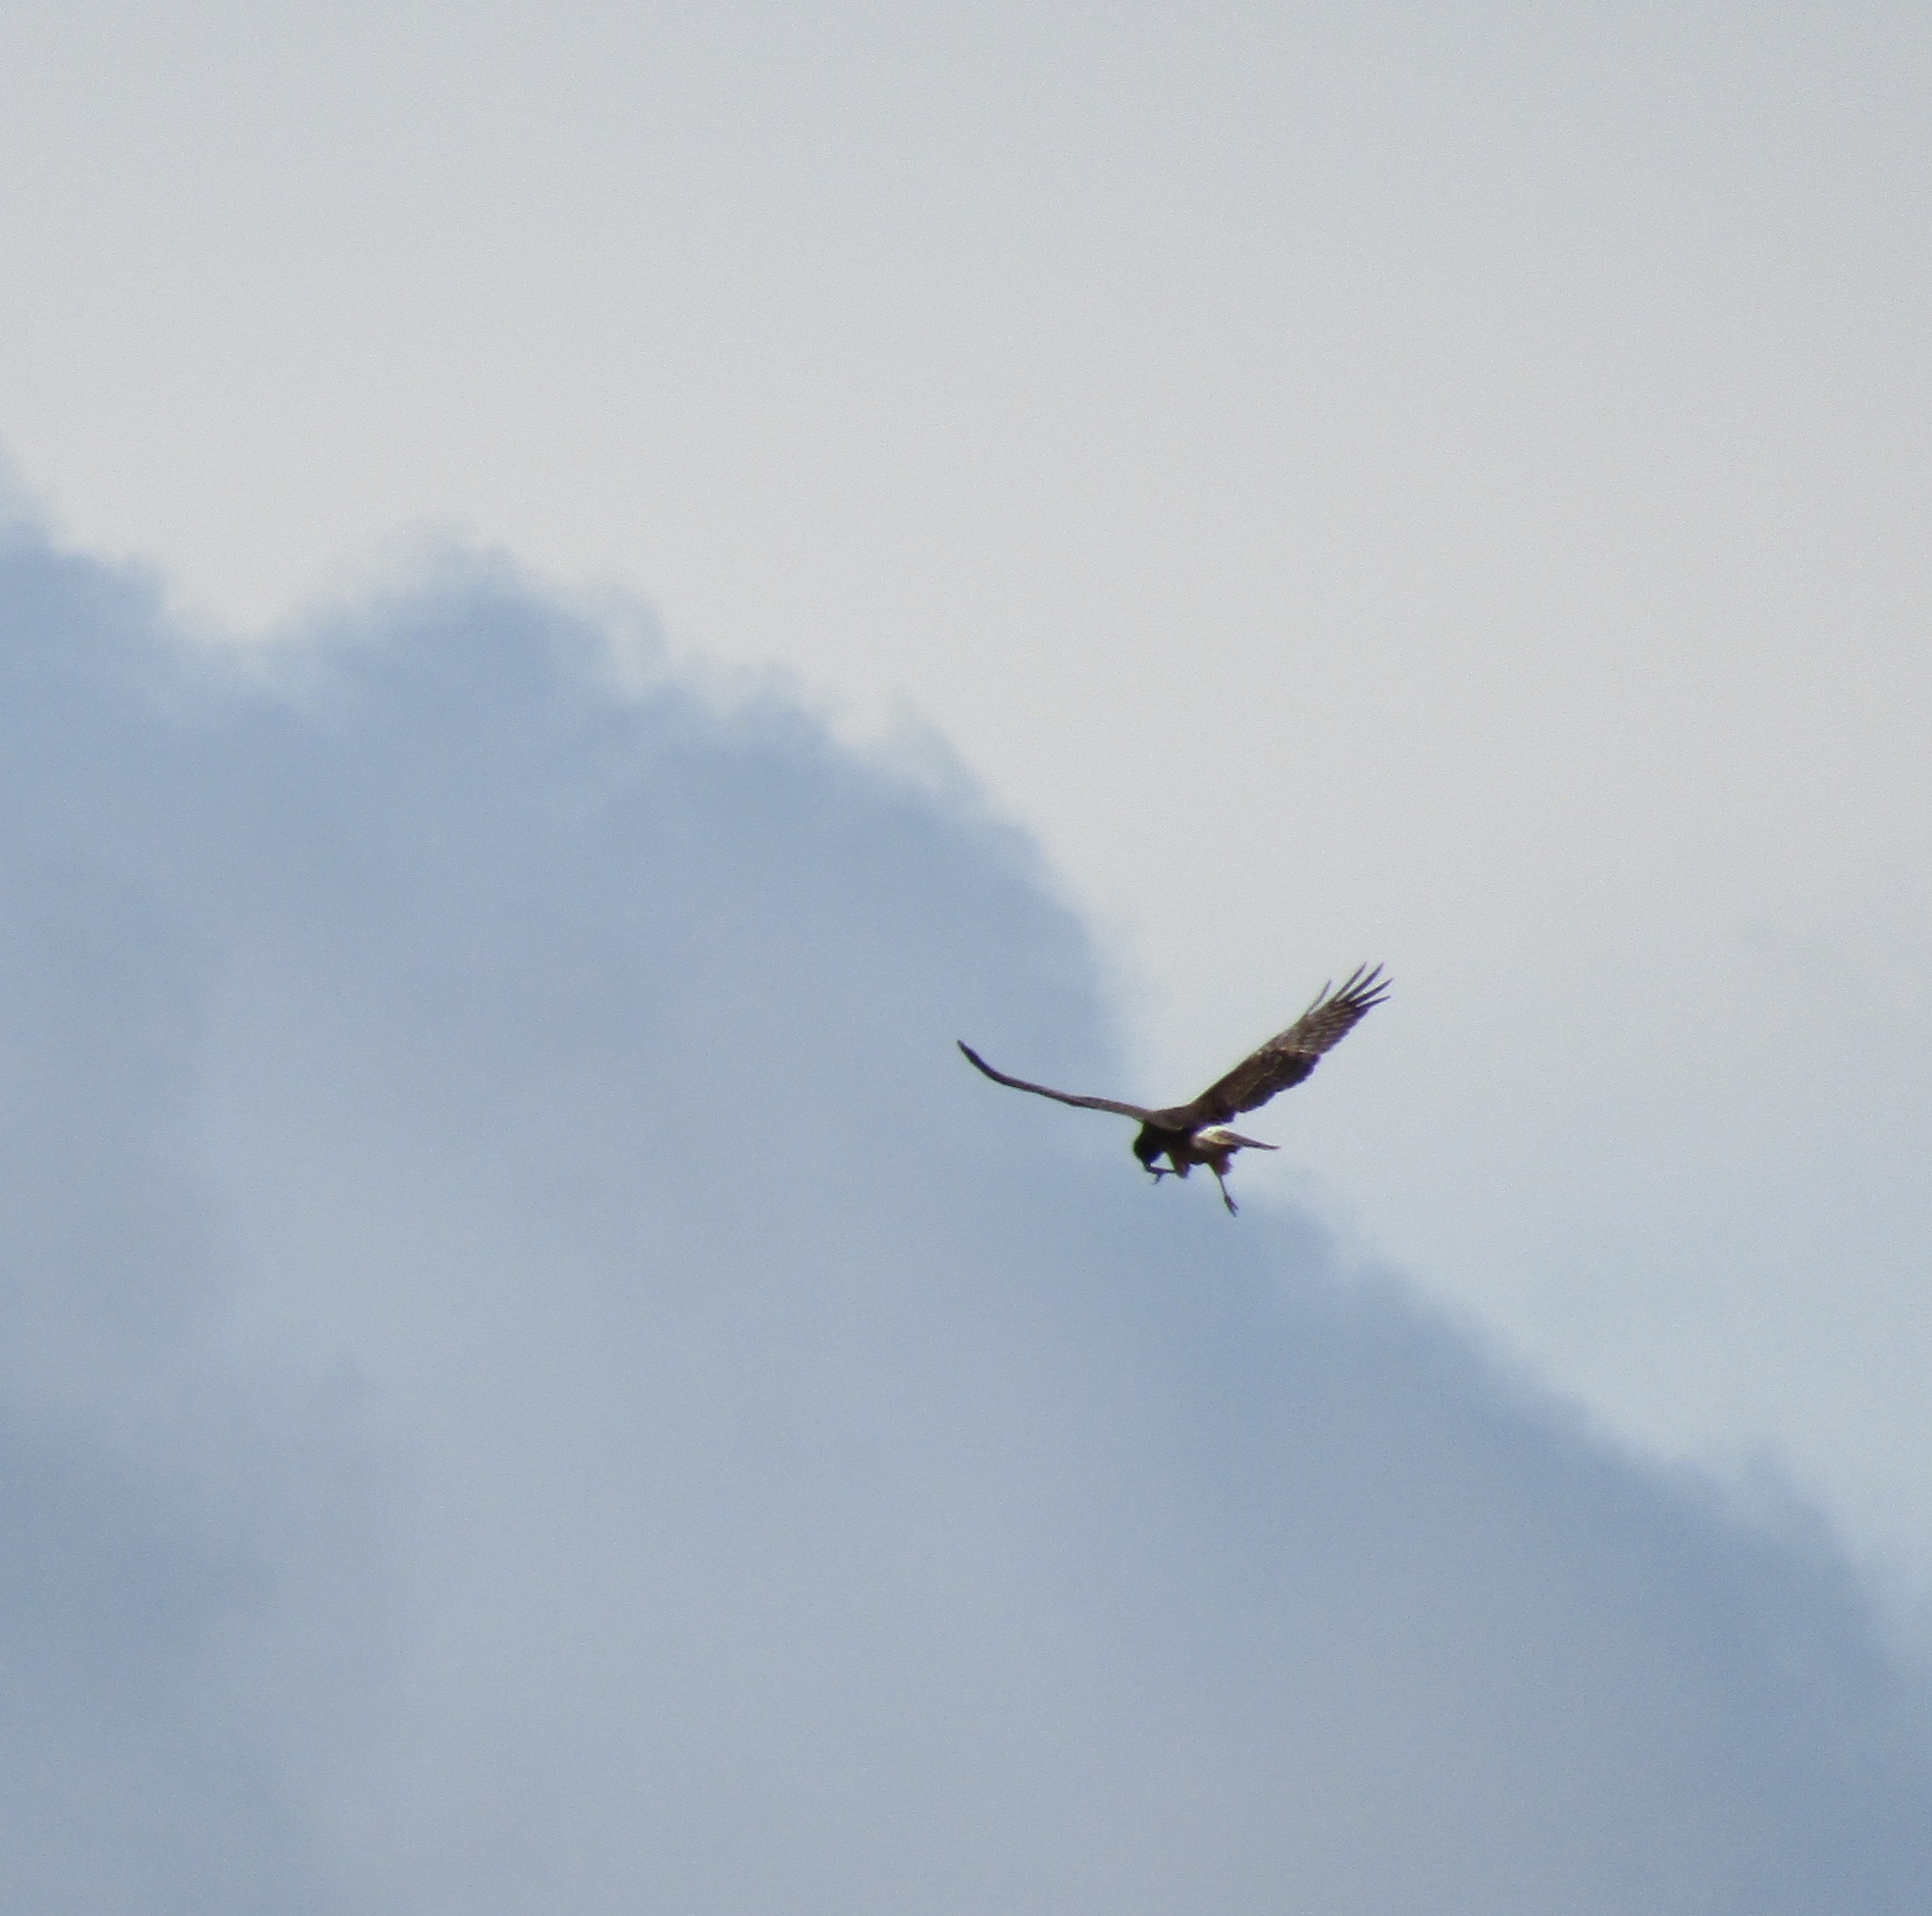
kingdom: Animalia
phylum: Chordata
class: Aves
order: Accipitriformes
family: Accipitridae
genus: Circus
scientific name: Circus approximans
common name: Swamp harrier
